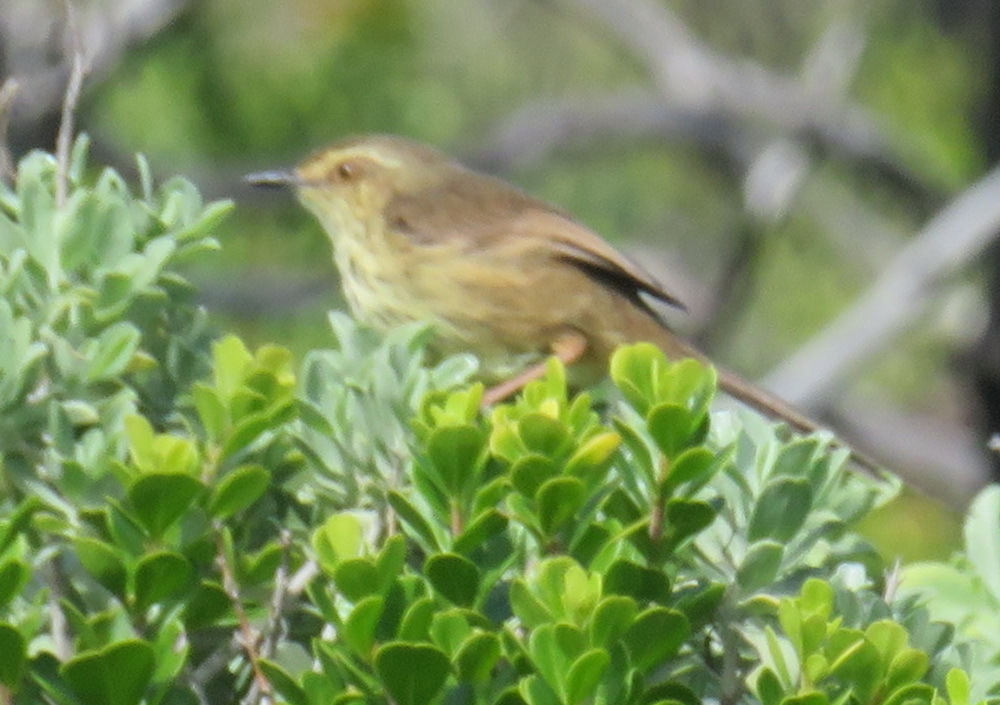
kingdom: Animalia
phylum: Chordata
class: Aves
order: Passeriformes
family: Cisticolidae
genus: Prinia
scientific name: Prinia maculosa
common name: Karoo prinia
